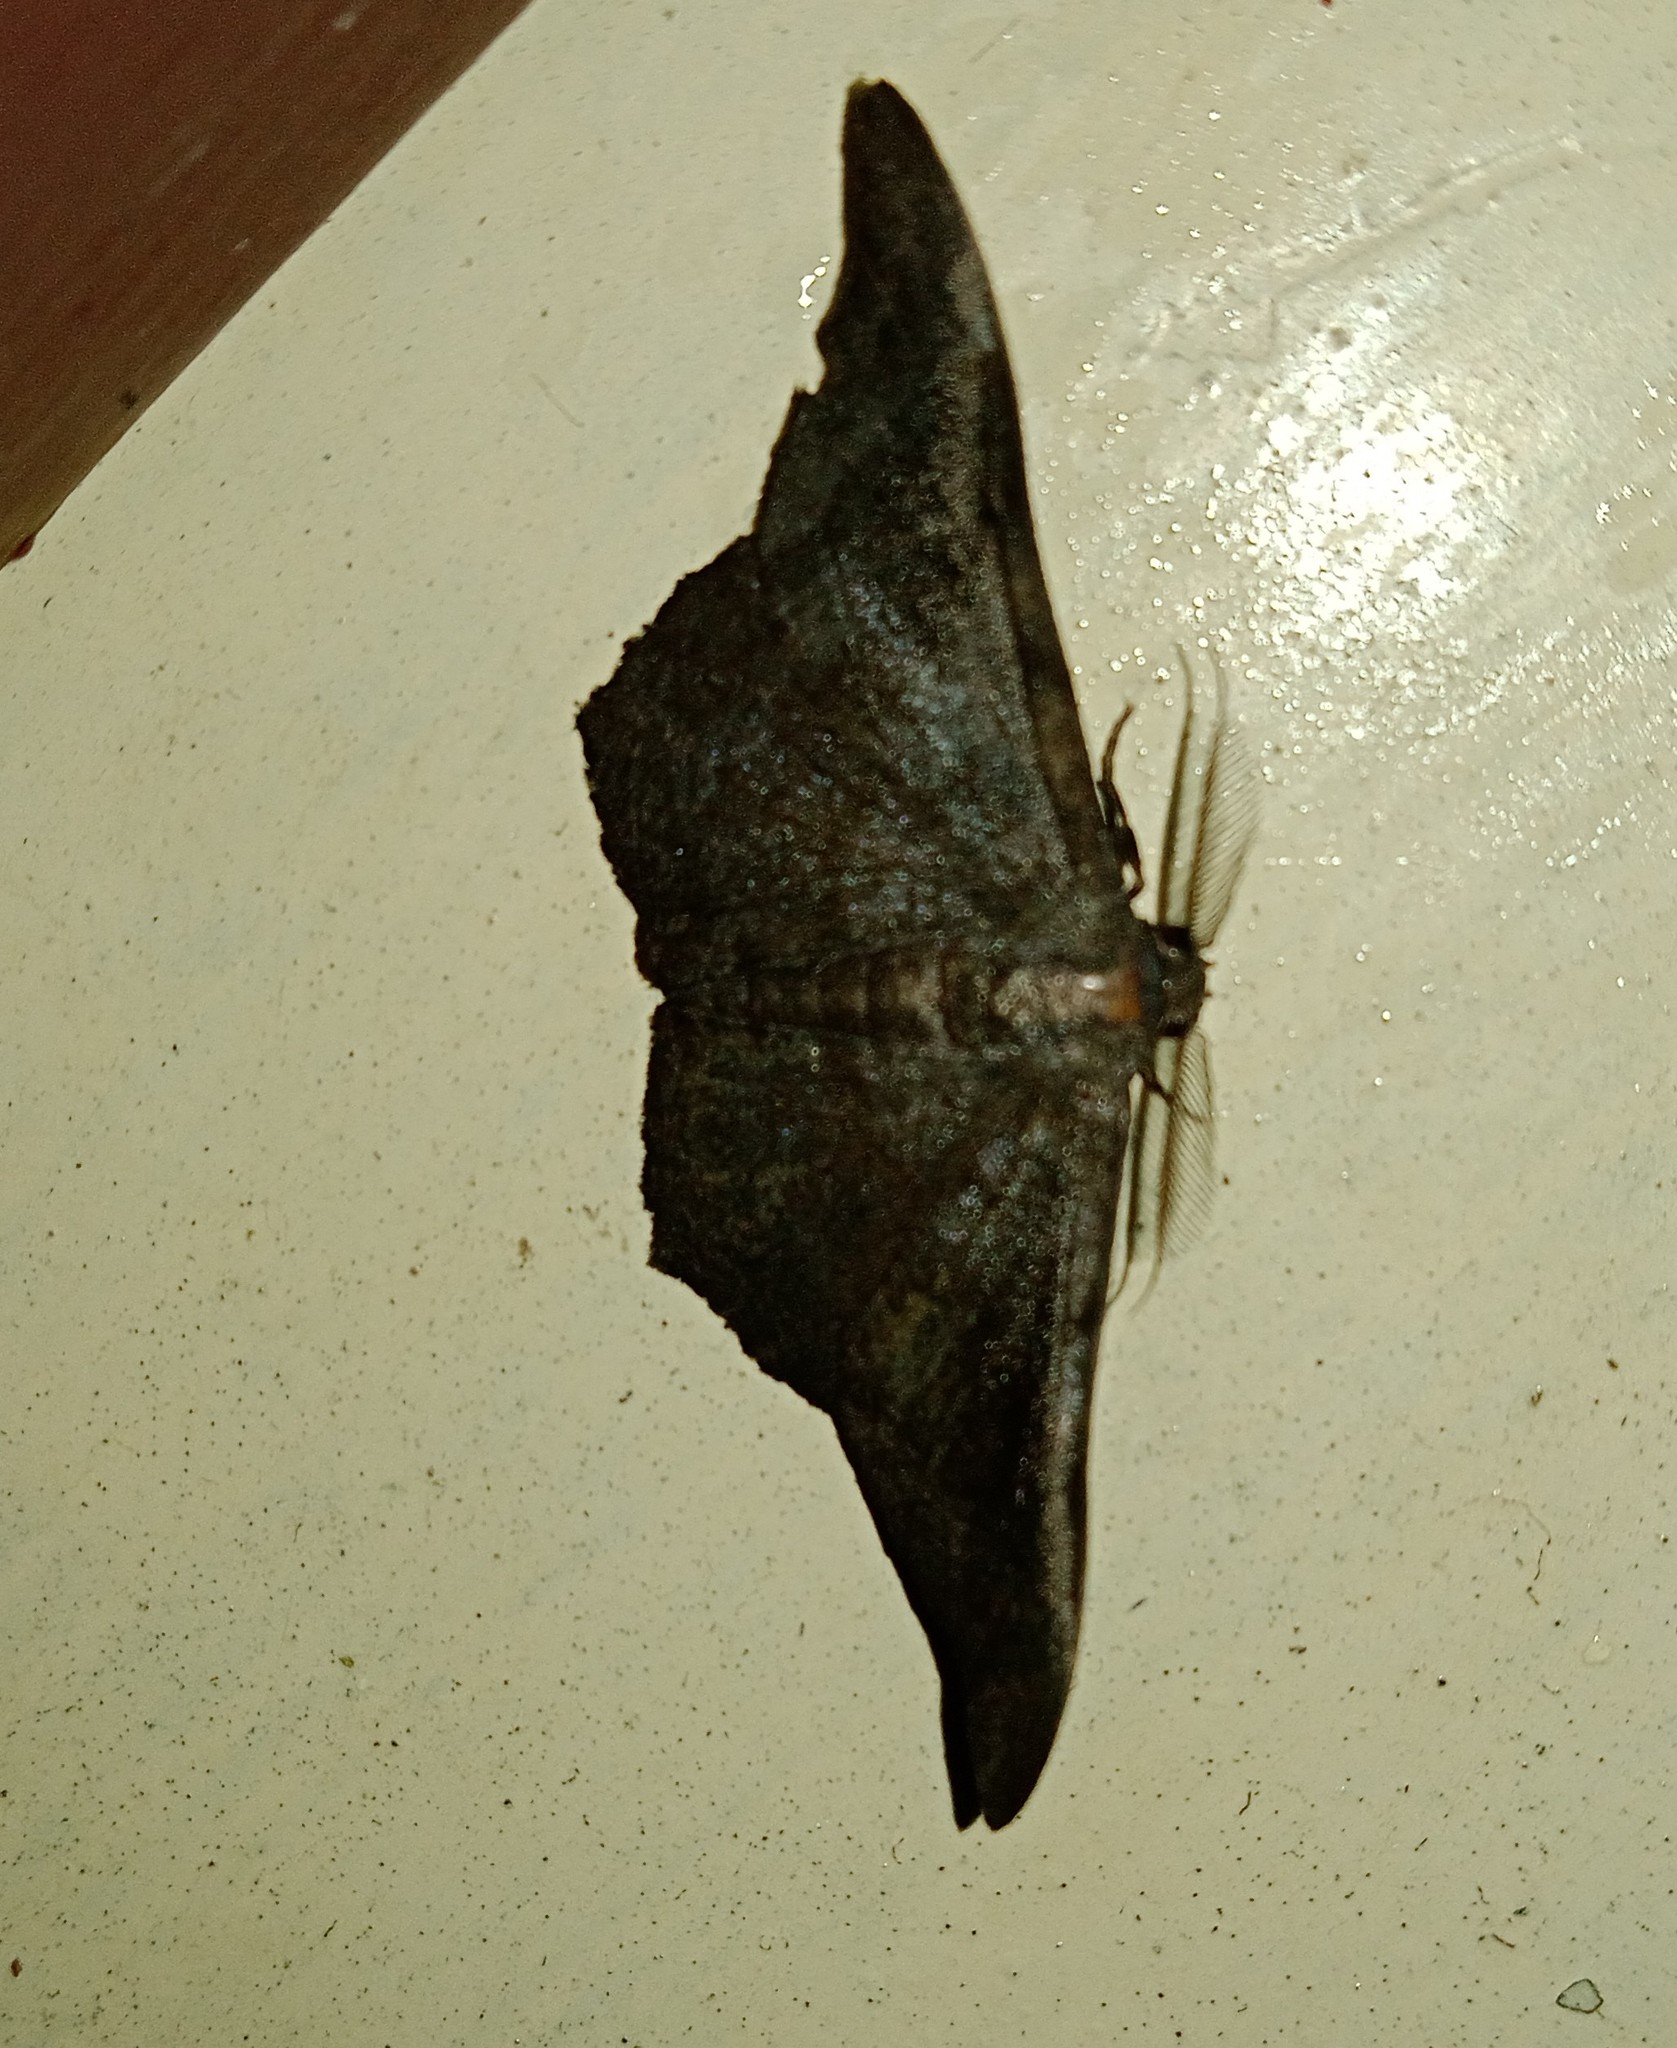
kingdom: Animalia
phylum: Arthropoda
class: Insecta
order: Lepidoptera
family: Geometridae
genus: Hyposidra
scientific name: Hyposidra talaca
